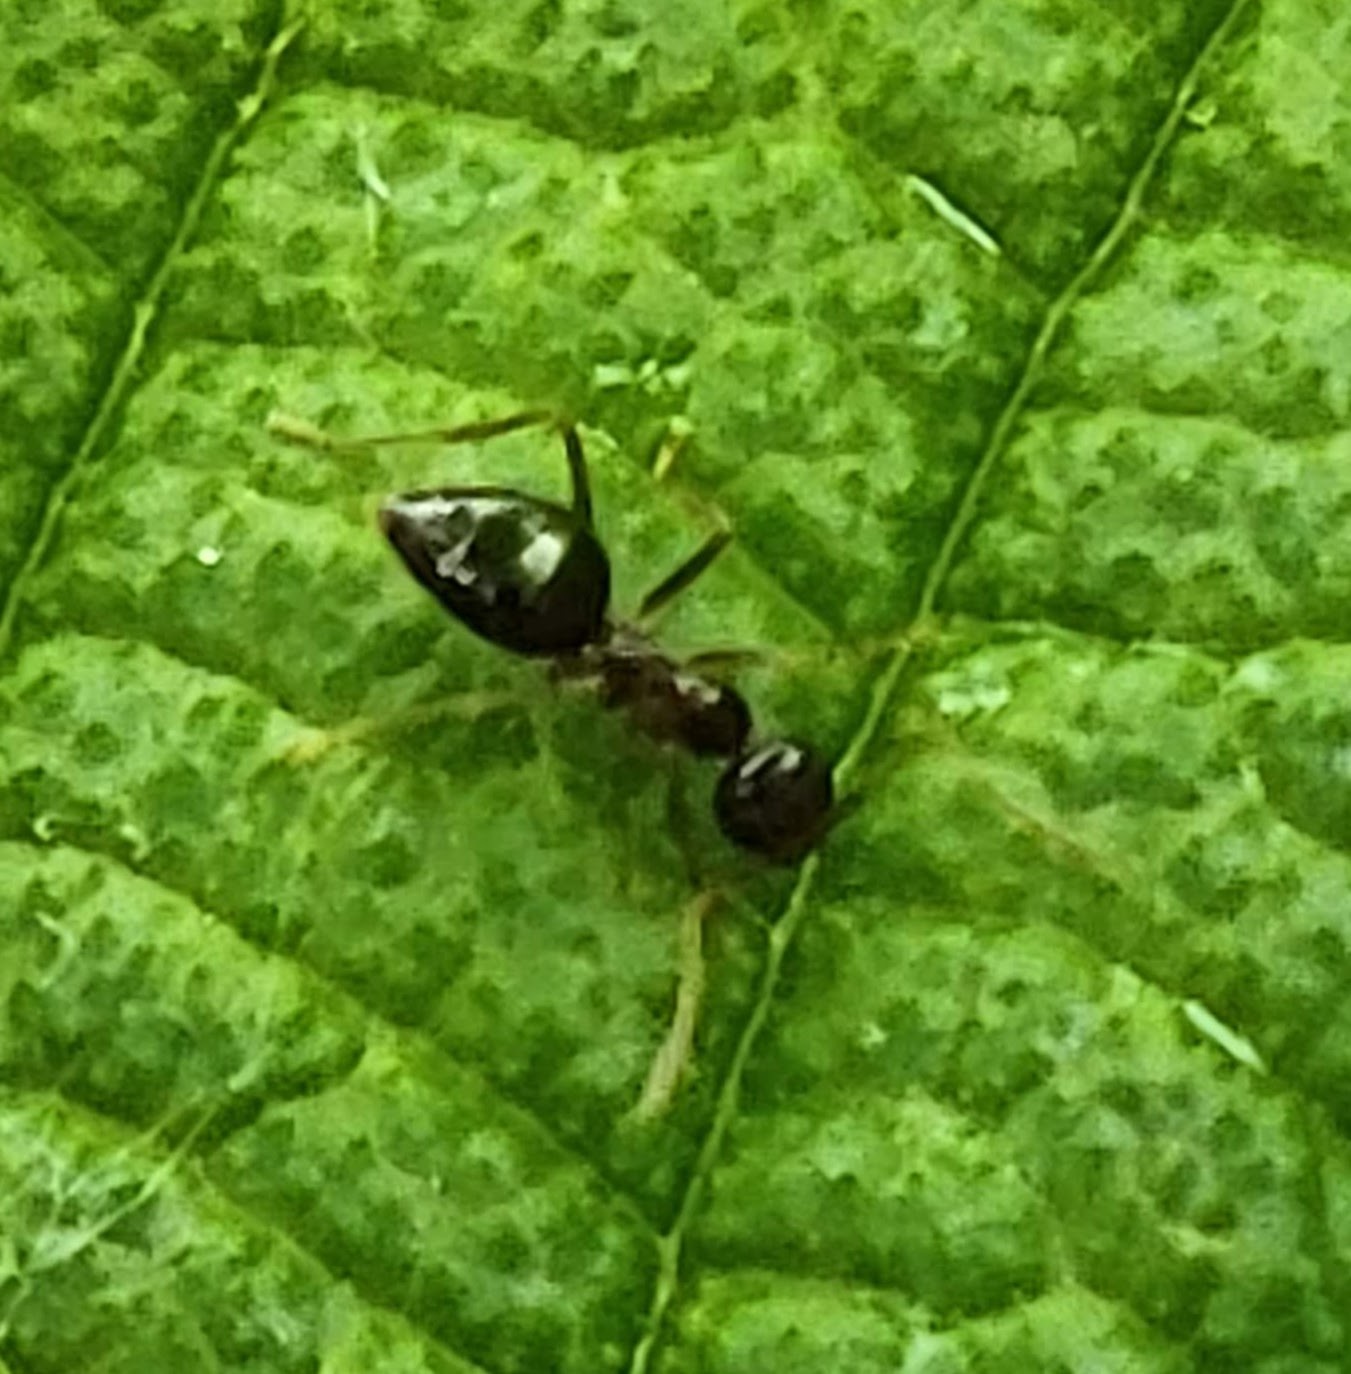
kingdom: Animalia
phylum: Arthropoda
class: Insecta
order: Hymenoptera
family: Formicidae
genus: Prenolepis
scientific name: Prenolepis imparis
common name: Small honey ant
